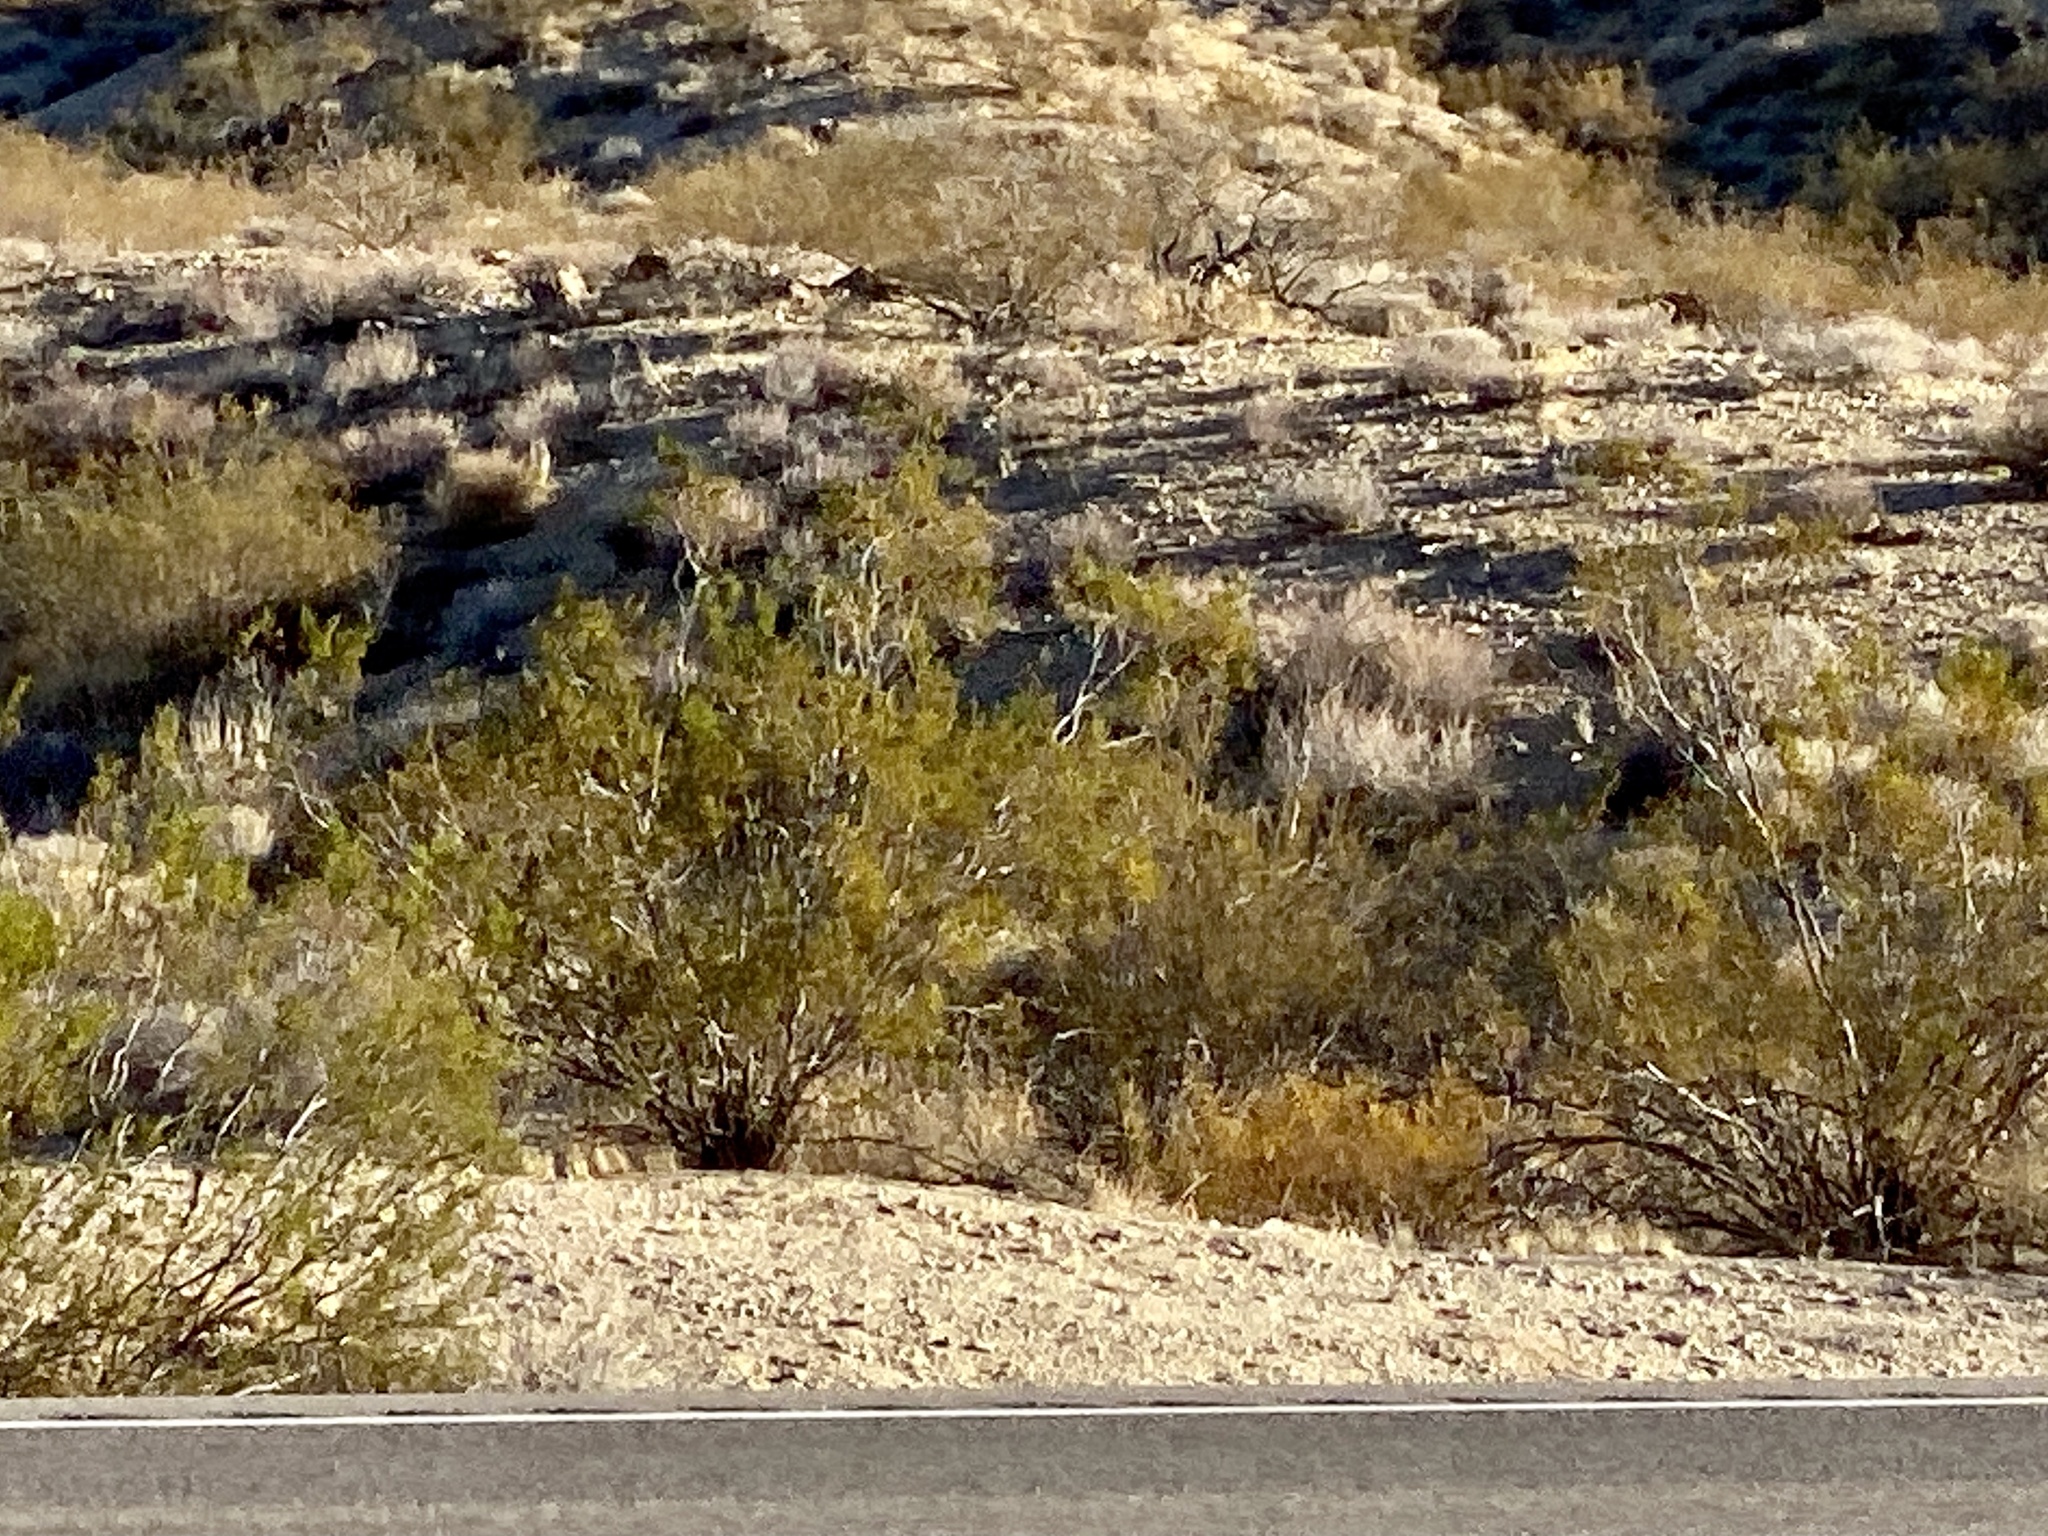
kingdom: Plantae
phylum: Tracheophyta
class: Magnoliopsida
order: Zygophyllales
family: Zygophyllaceae
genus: Larrea
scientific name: Larrea tridentata
